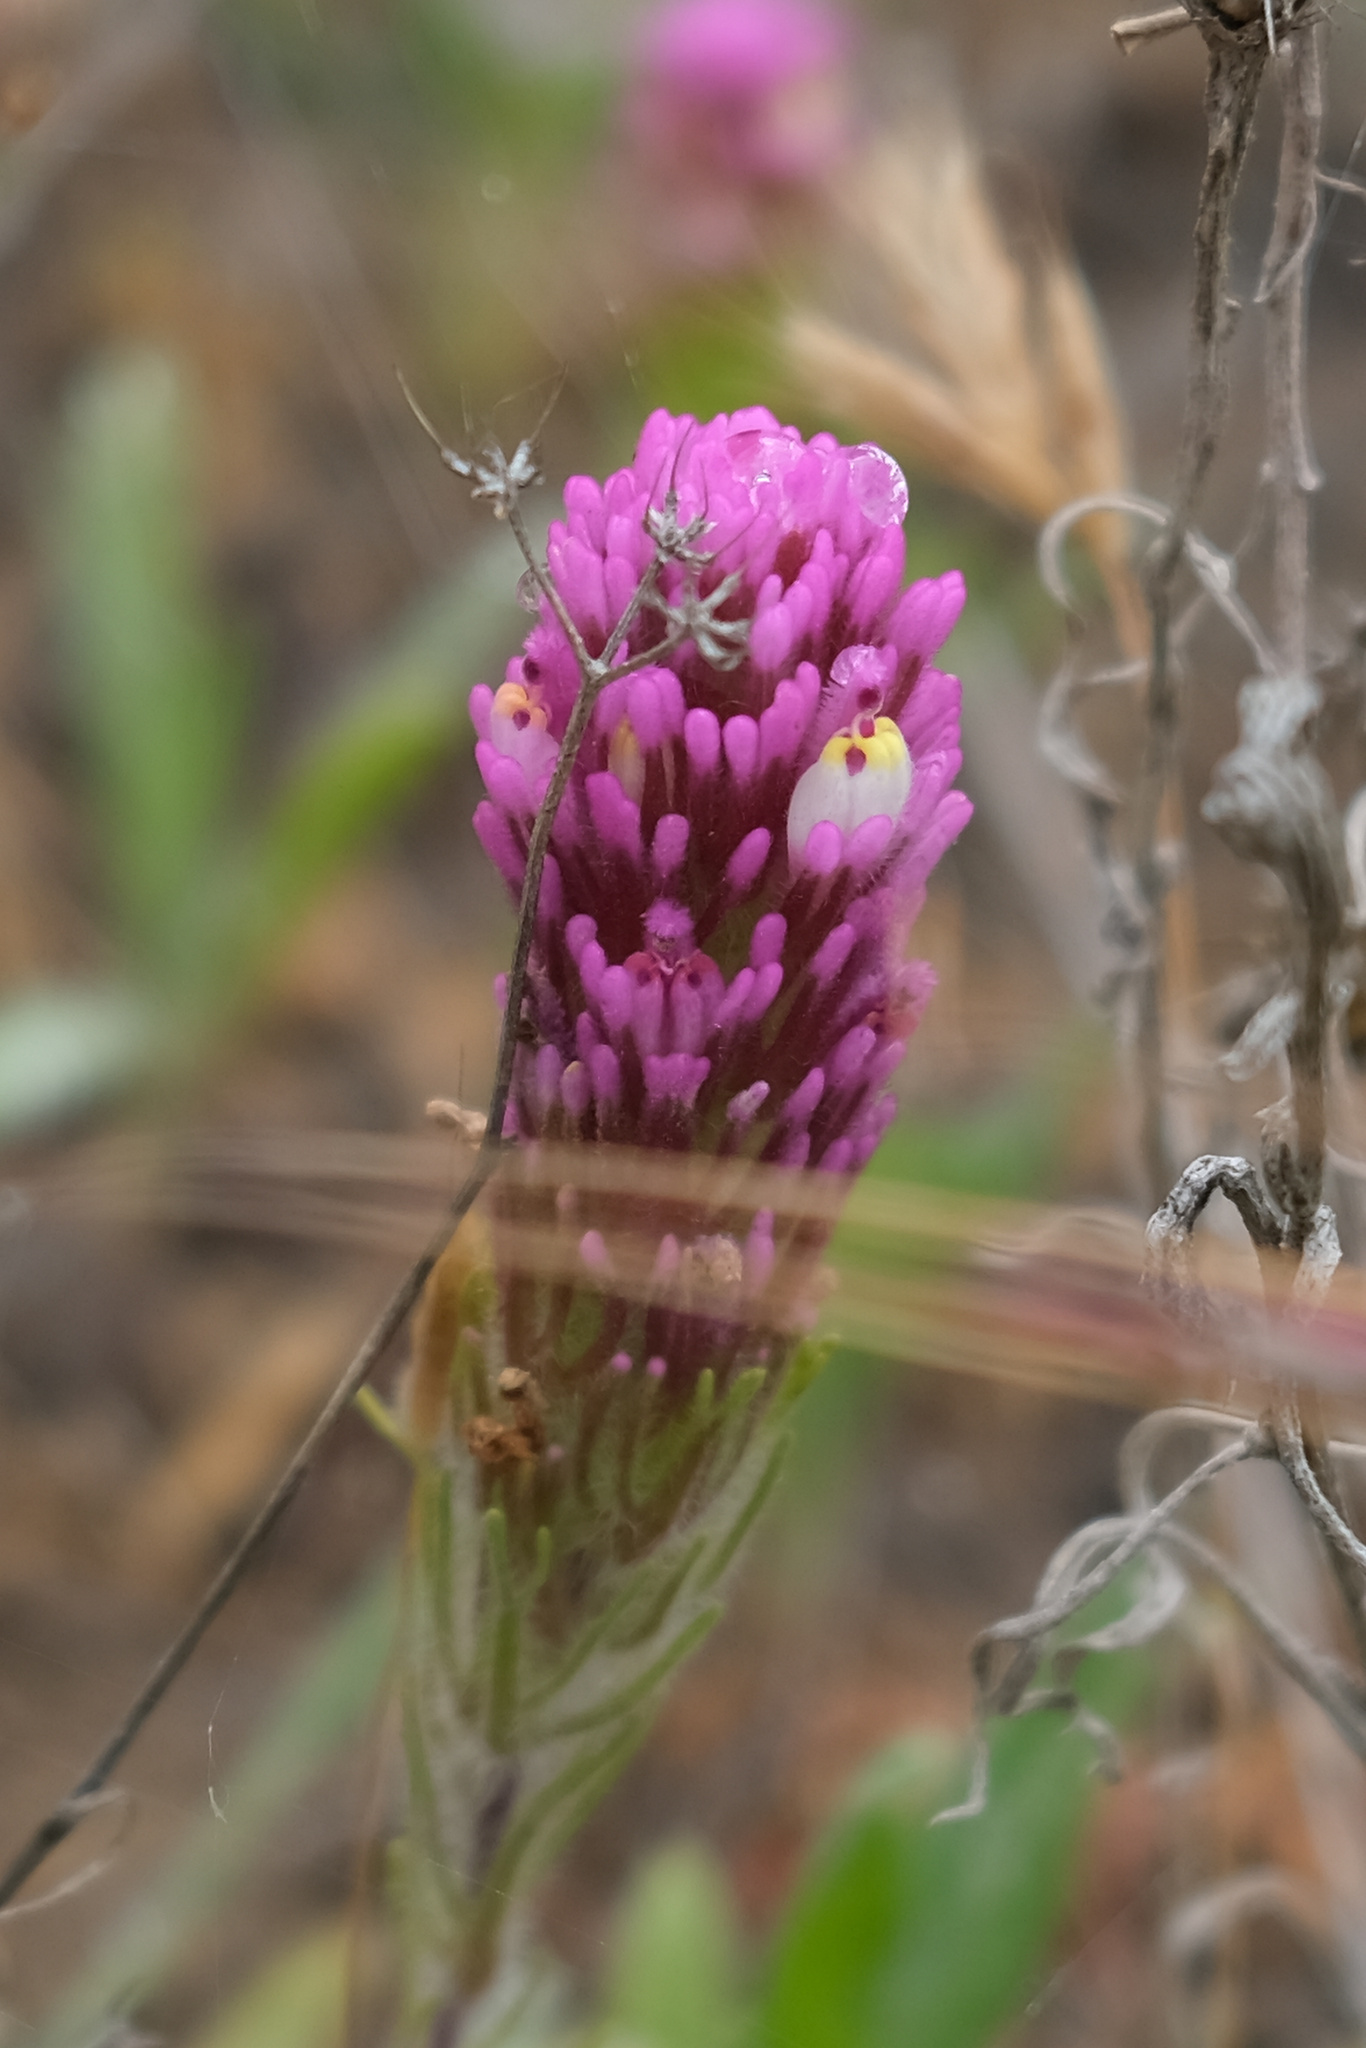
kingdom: Plantae
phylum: Tracheophyta
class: Magnoliopsida
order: Lamiales
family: Orobanchaceae
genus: Castilleja
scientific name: Castilleja exserta
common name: Purple owl-clover
